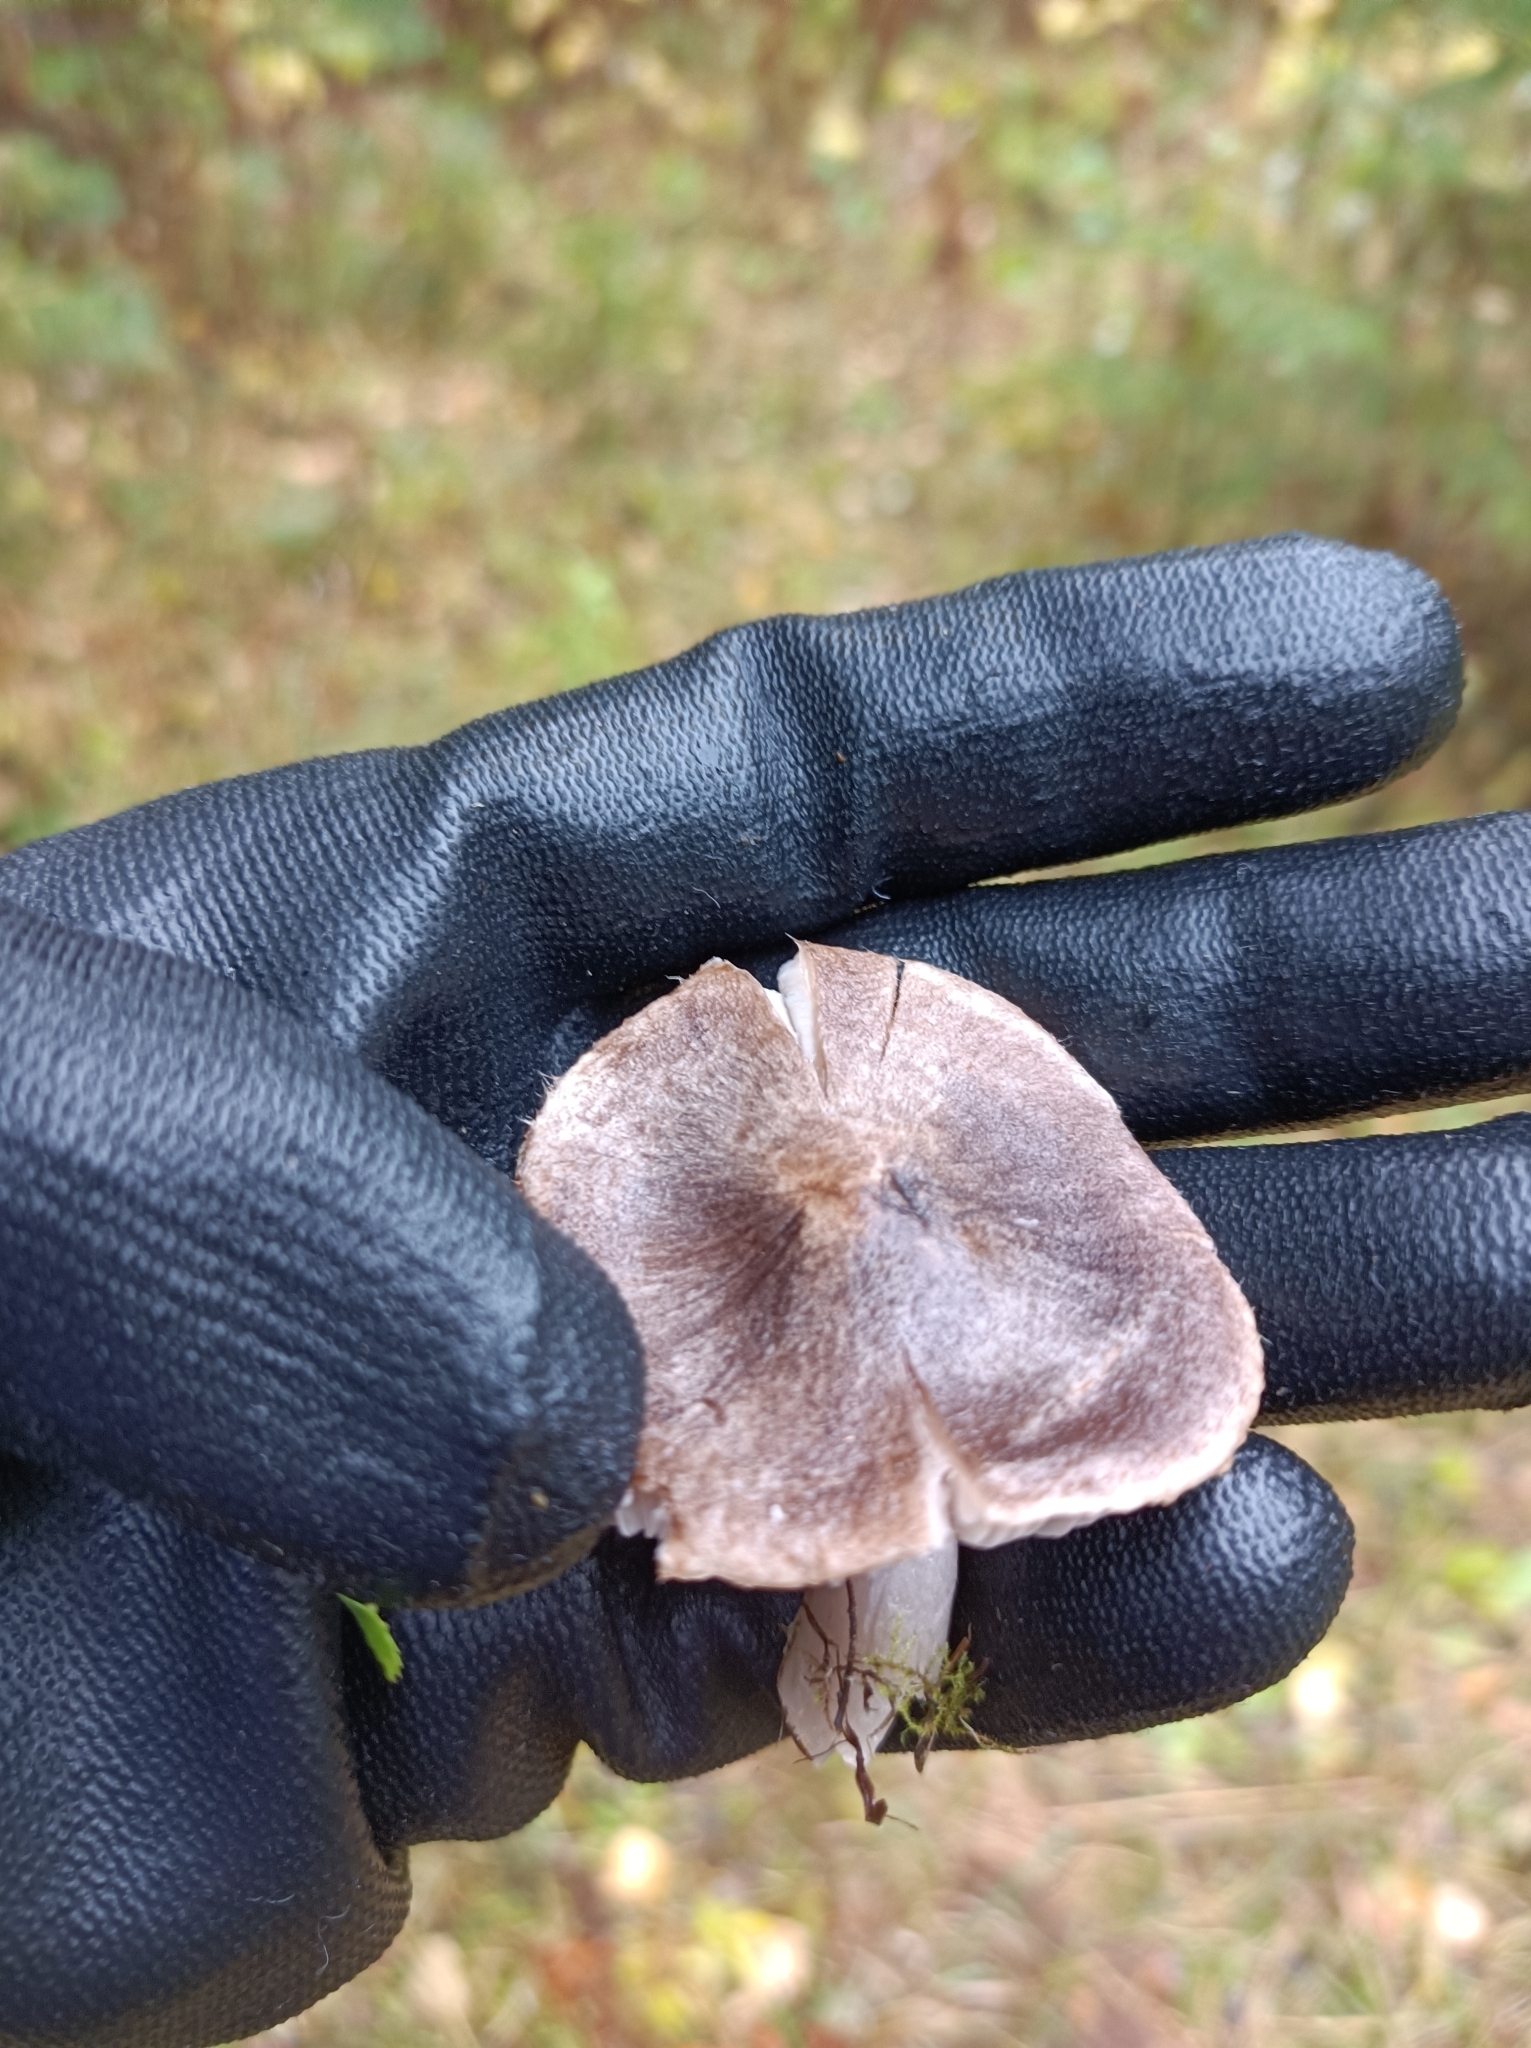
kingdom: Fungi
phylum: Basidiomycota
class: Agaricomycetes
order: Agaricales
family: Tricholomataceae
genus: Tricholoma
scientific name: Tricholoma terreum
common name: Grey knight
